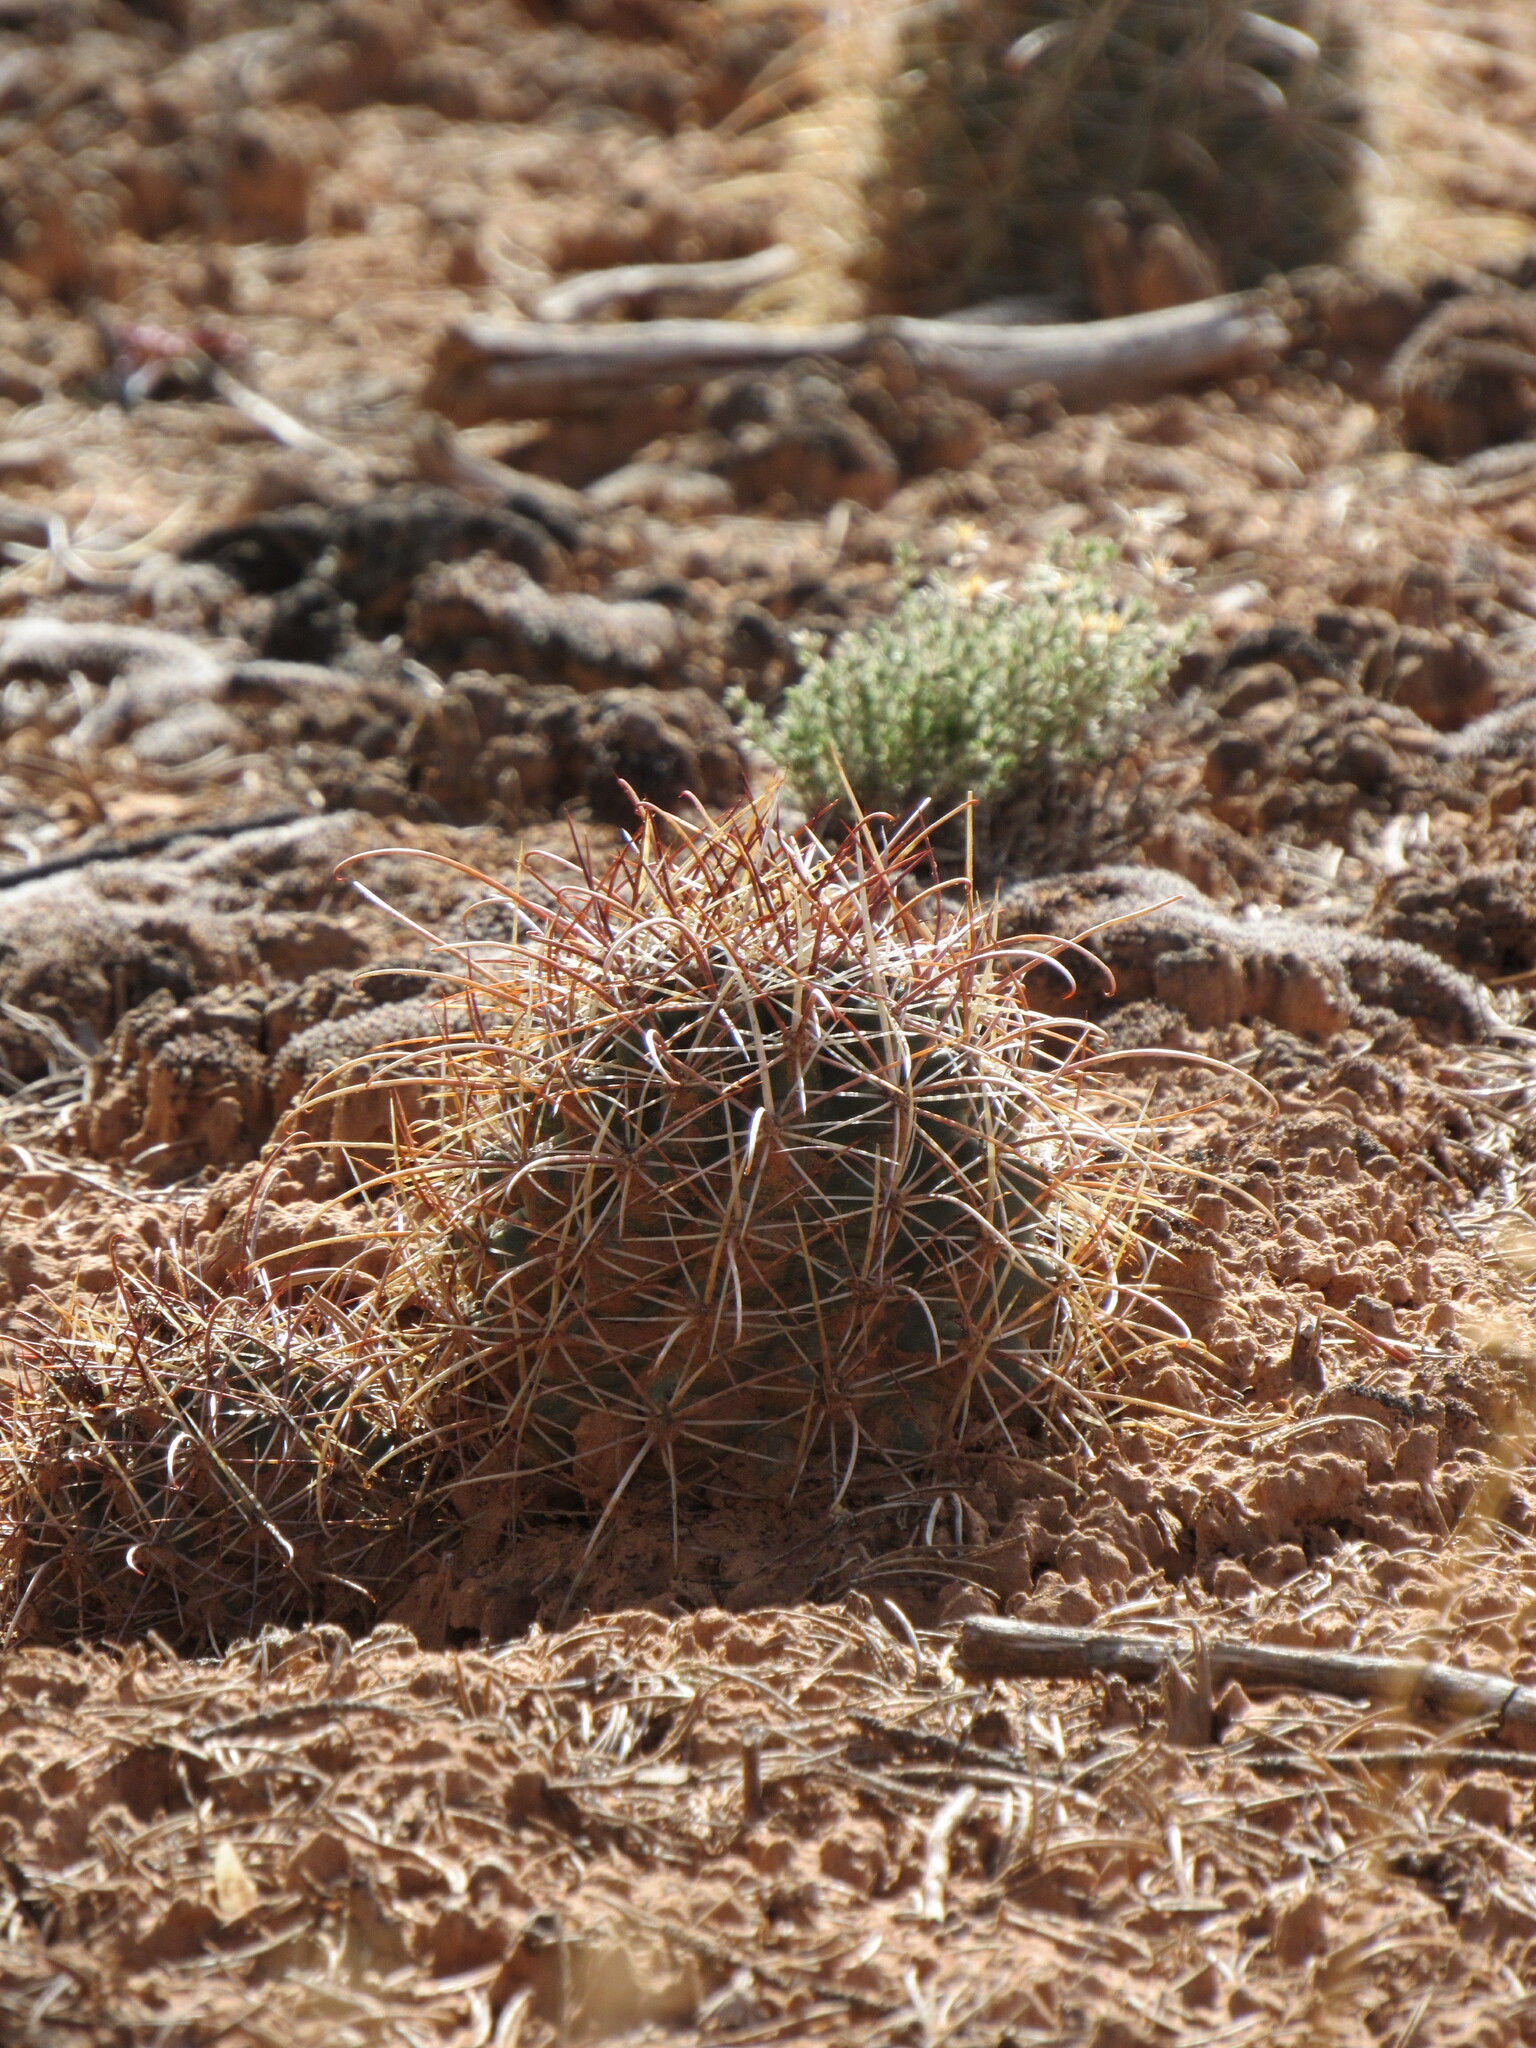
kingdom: Plantae
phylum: Tracheophyta
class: Magnoliopsida
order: Caryophyllales
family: Cactaceae
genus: Sclerocactus
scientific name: Sclerocactus parviflorus
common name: Small-flower fishhook cactus
